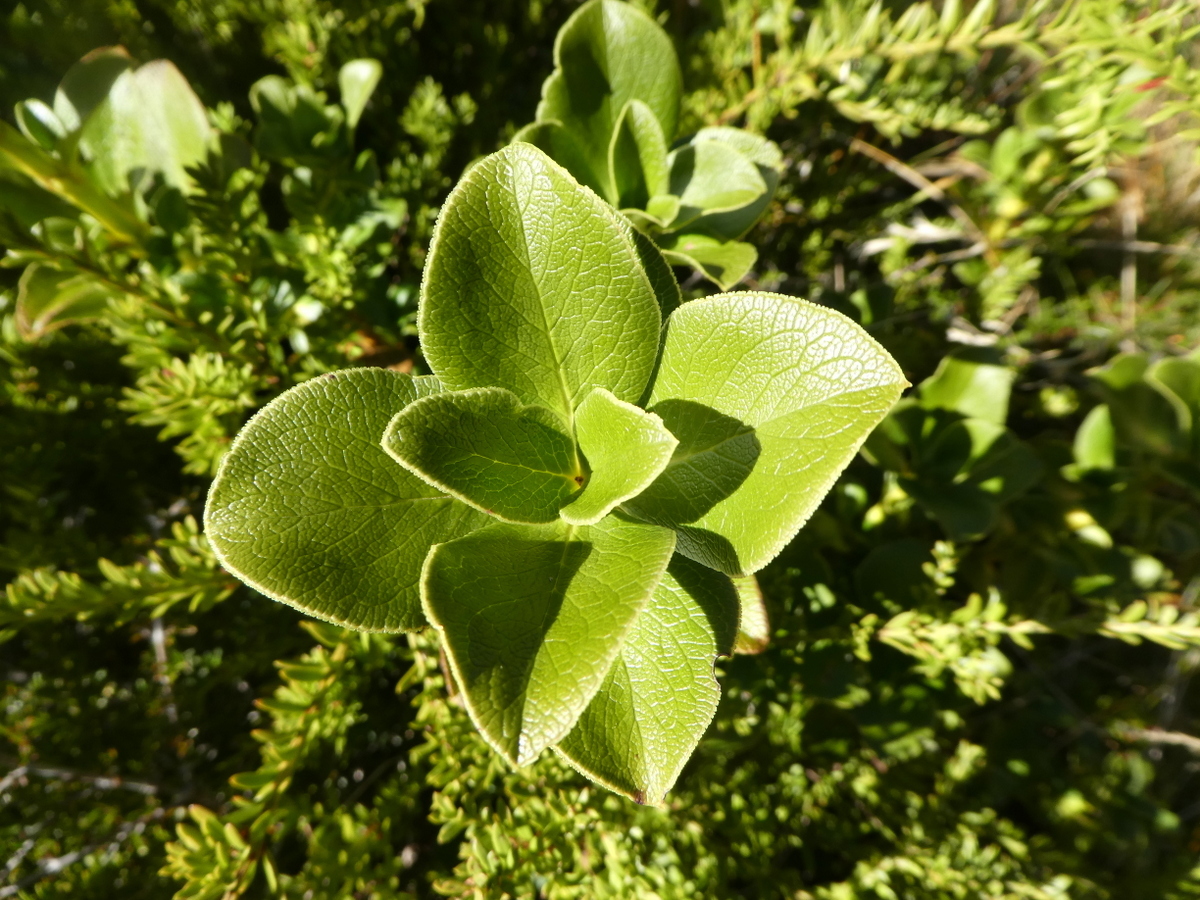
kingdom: Plantae
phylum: Tracheophyta
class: Magnoliopsida
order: Gentianales
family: Rubiaceae
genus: Coprosma
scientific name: Coprosma serrulata
